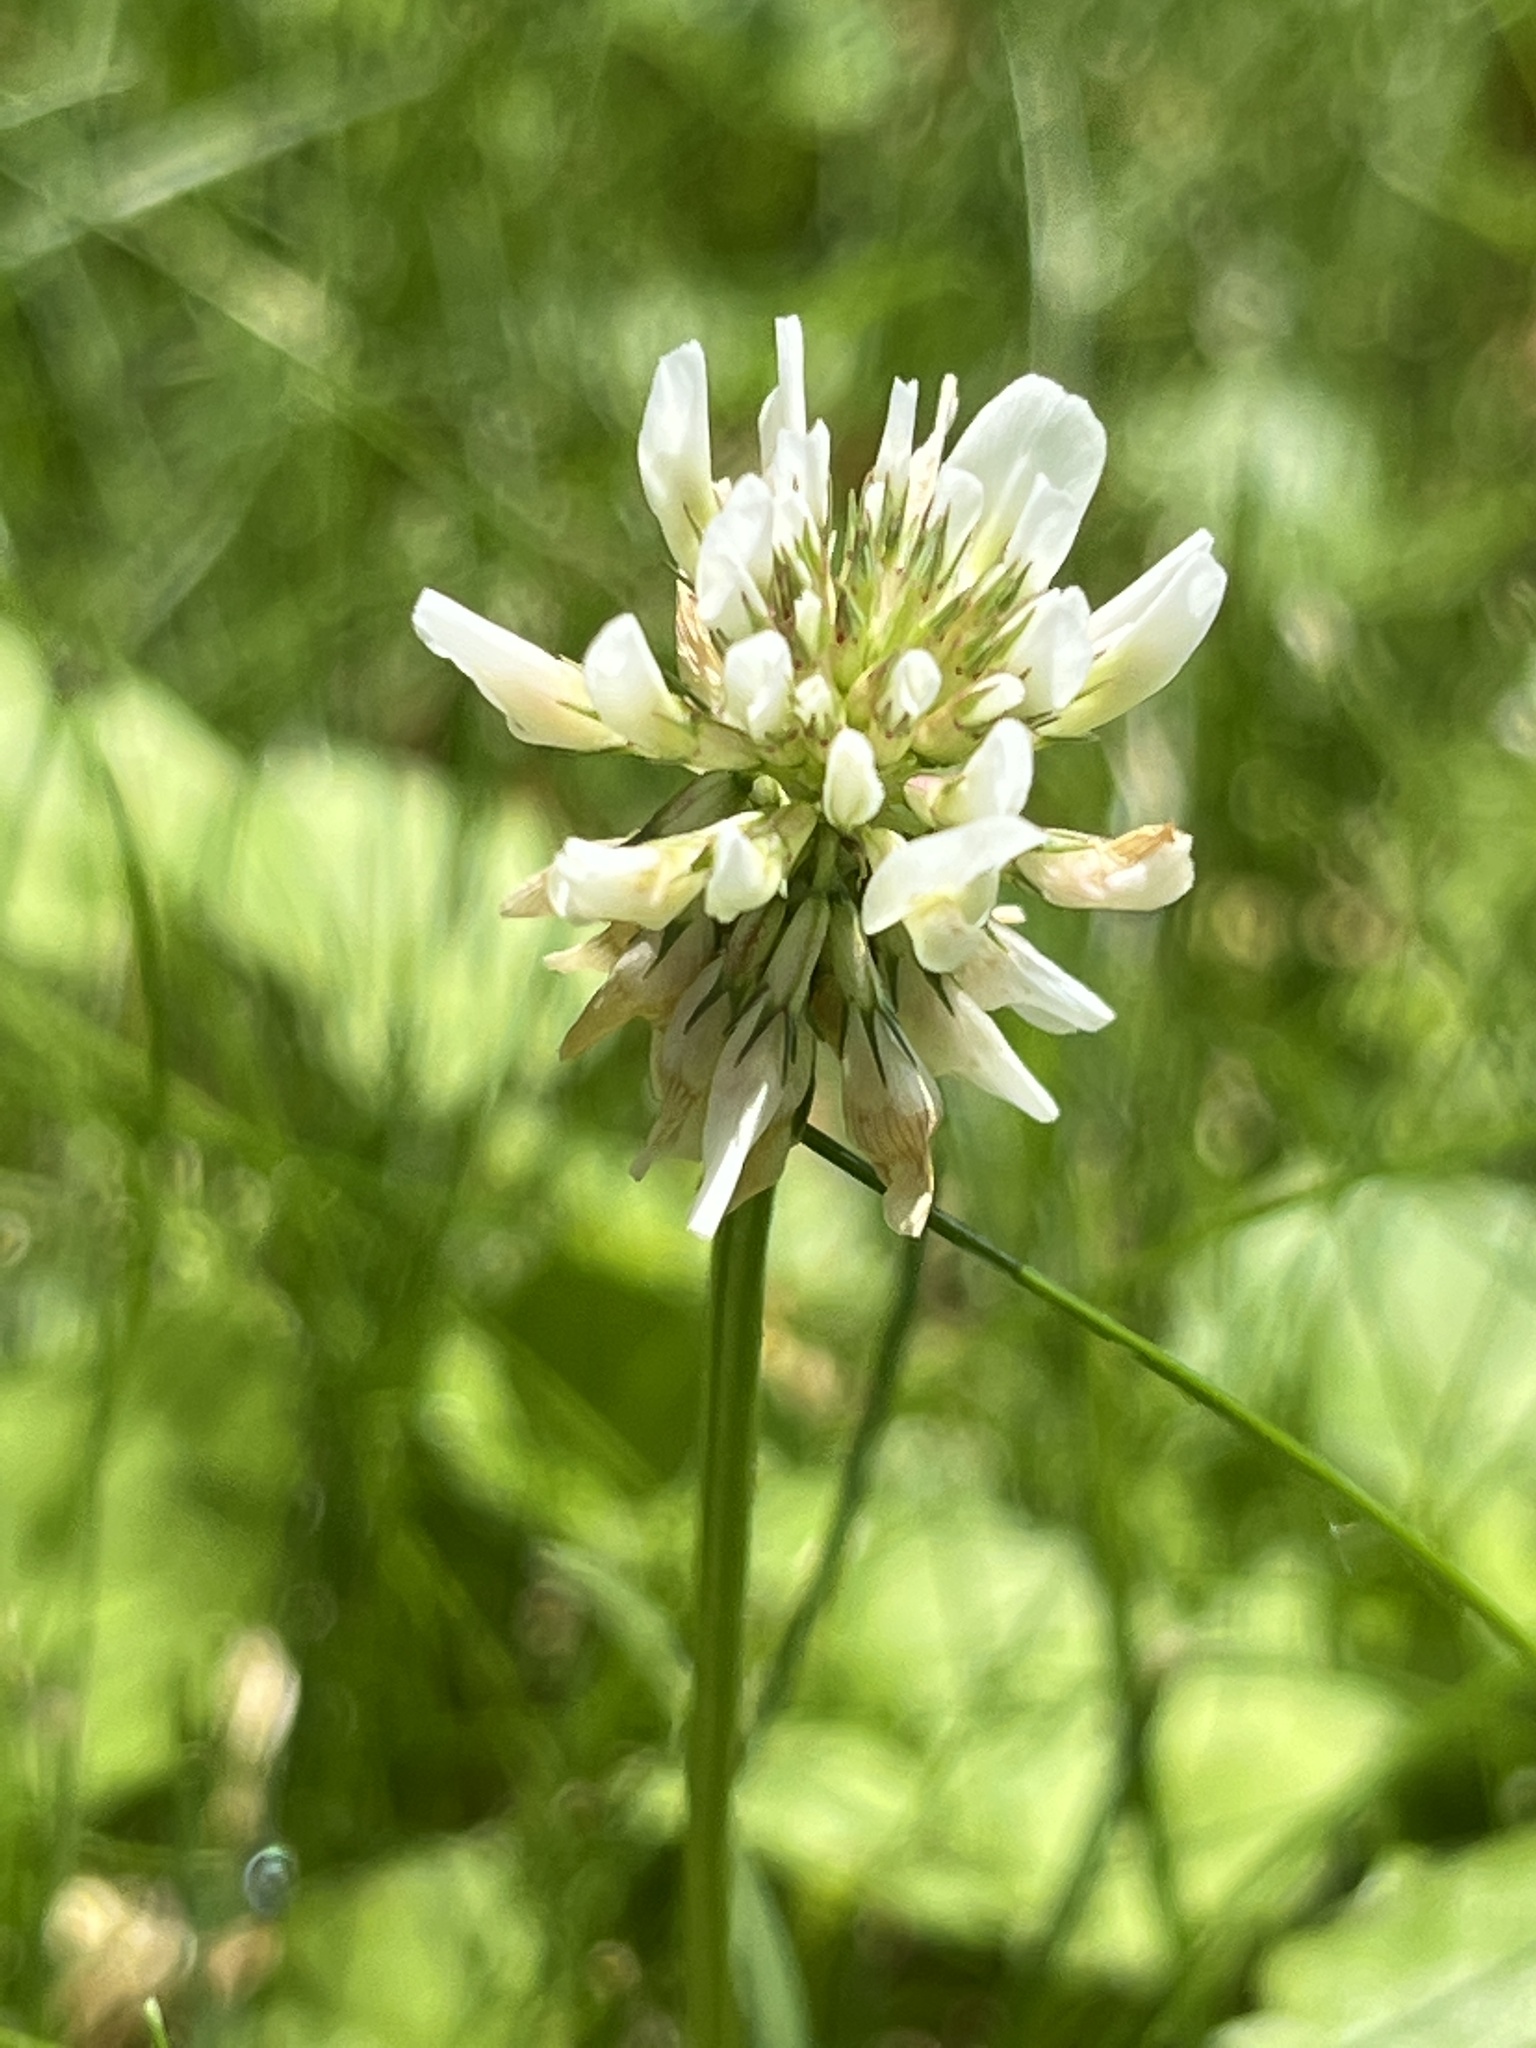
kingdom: Plantae
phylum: Tracheophyta
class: Magnoliopsida
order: Fabales
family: Fabaceae
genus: Trifolium
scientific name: Trifolium repens
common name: White clover
